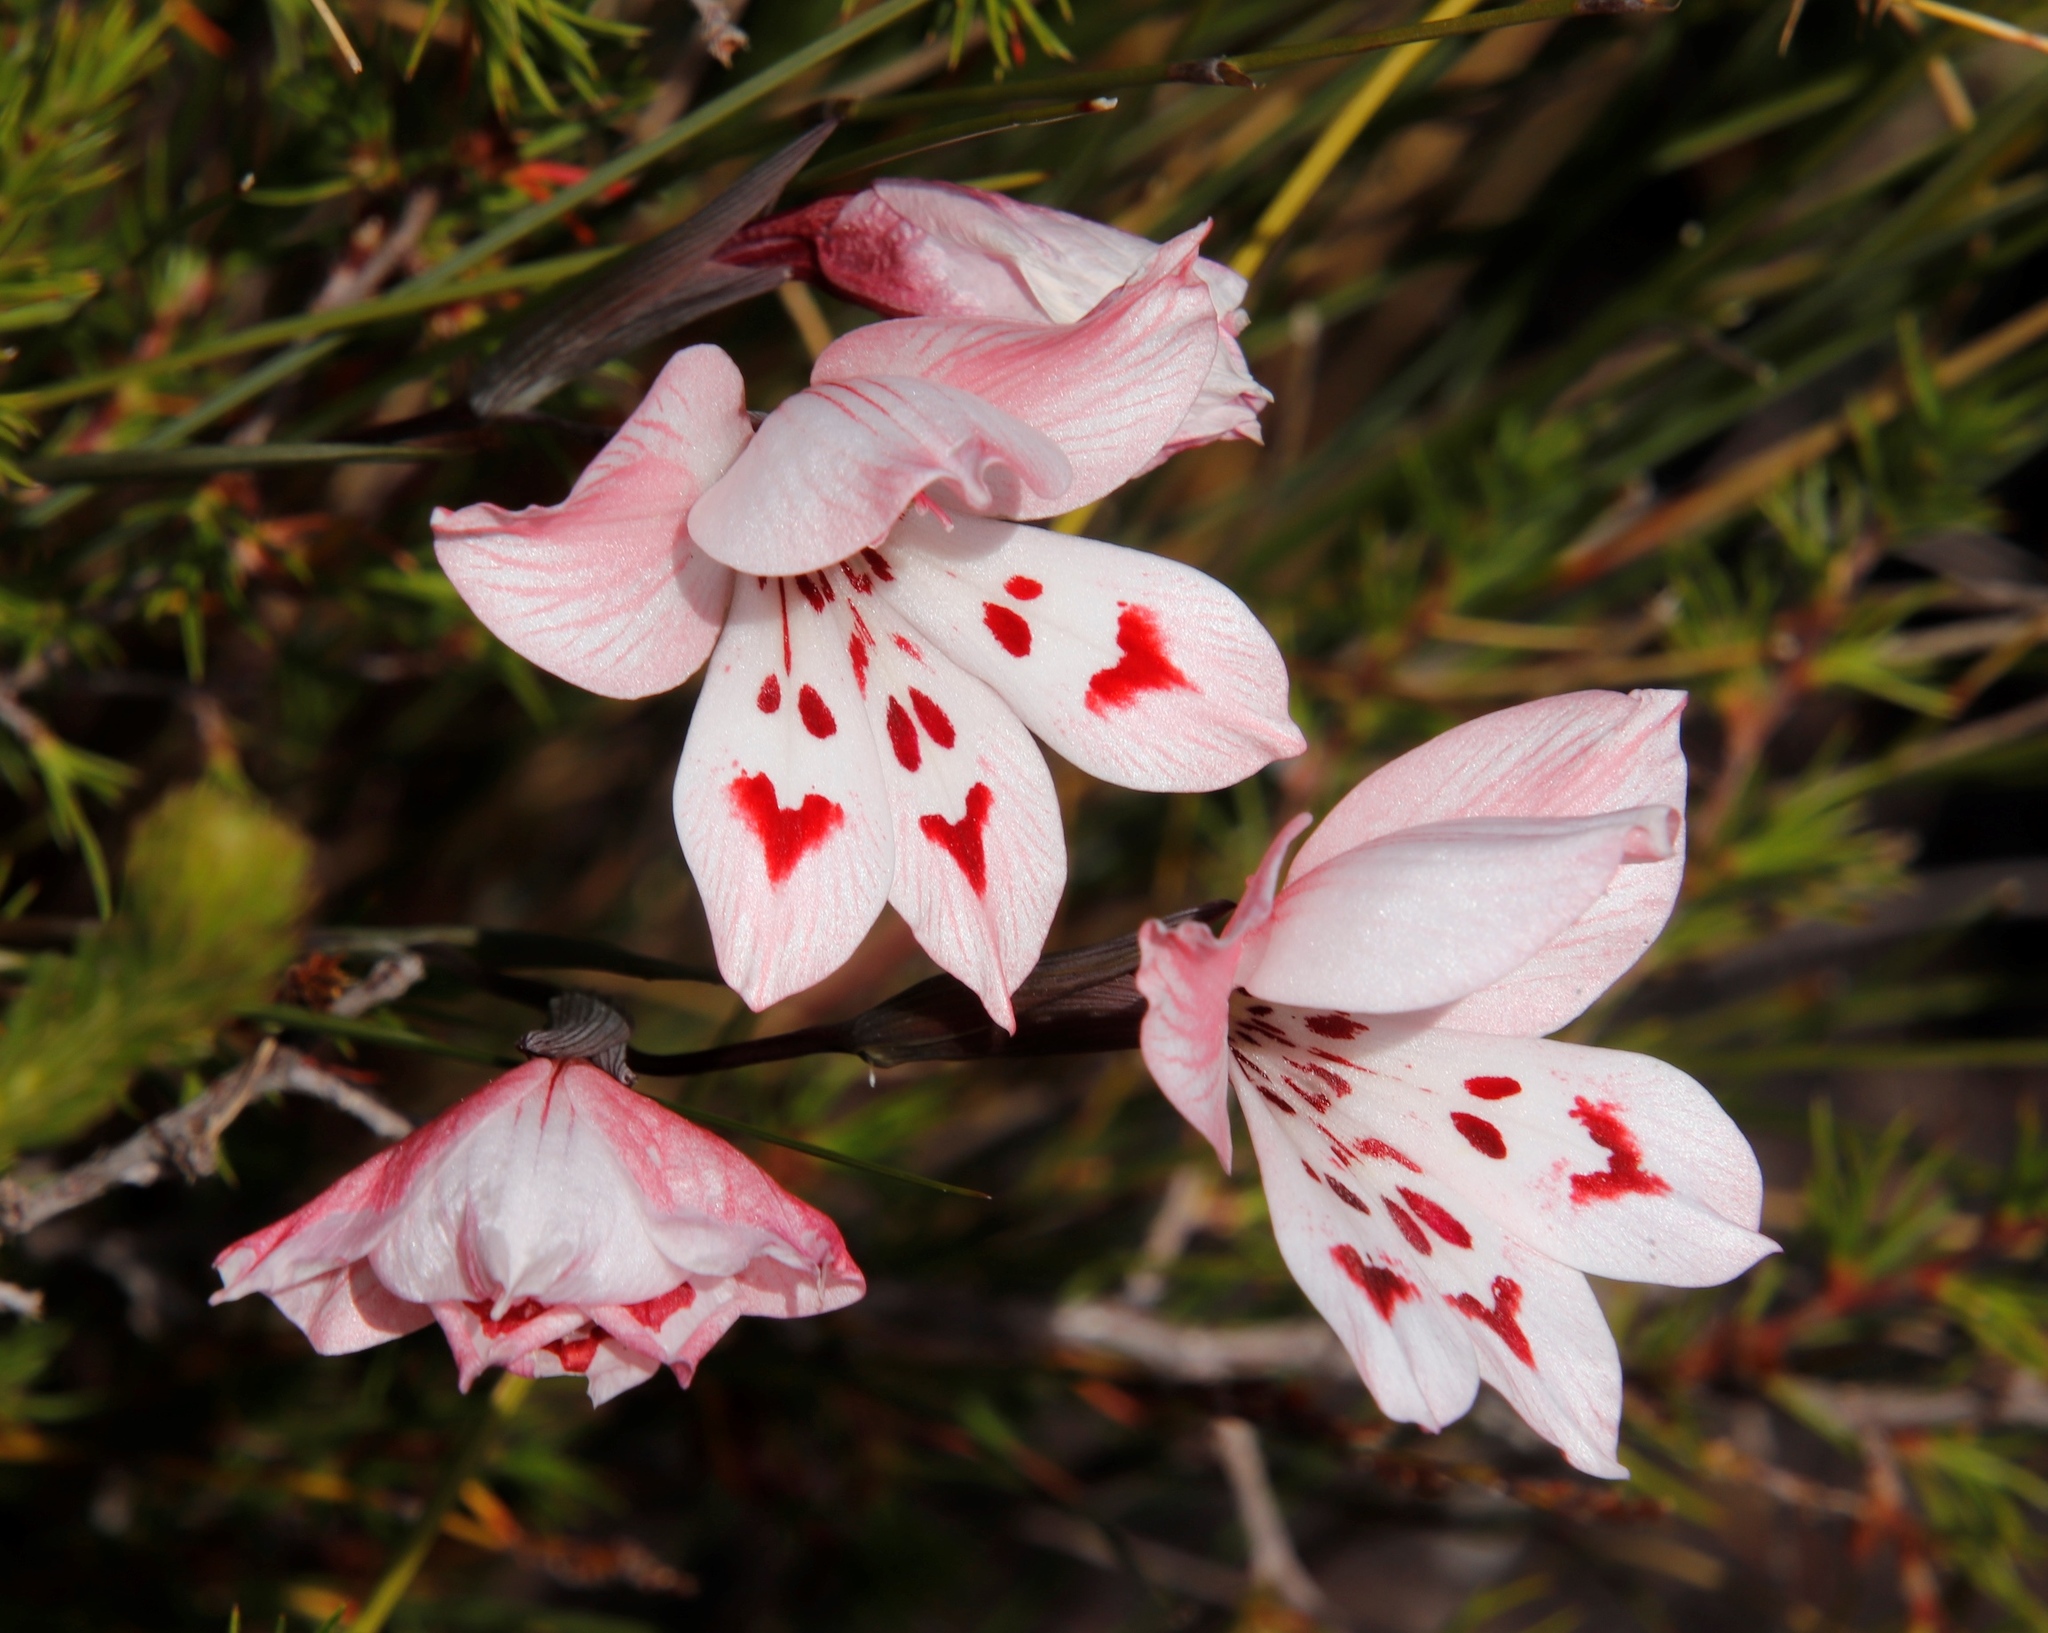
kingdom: Plantae
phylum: Tracheophyta
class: Liliopsida
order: Asparagales
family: Iridaceae
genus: Gladiolus
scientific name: Gladiolus debilis
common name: Painted-lady
